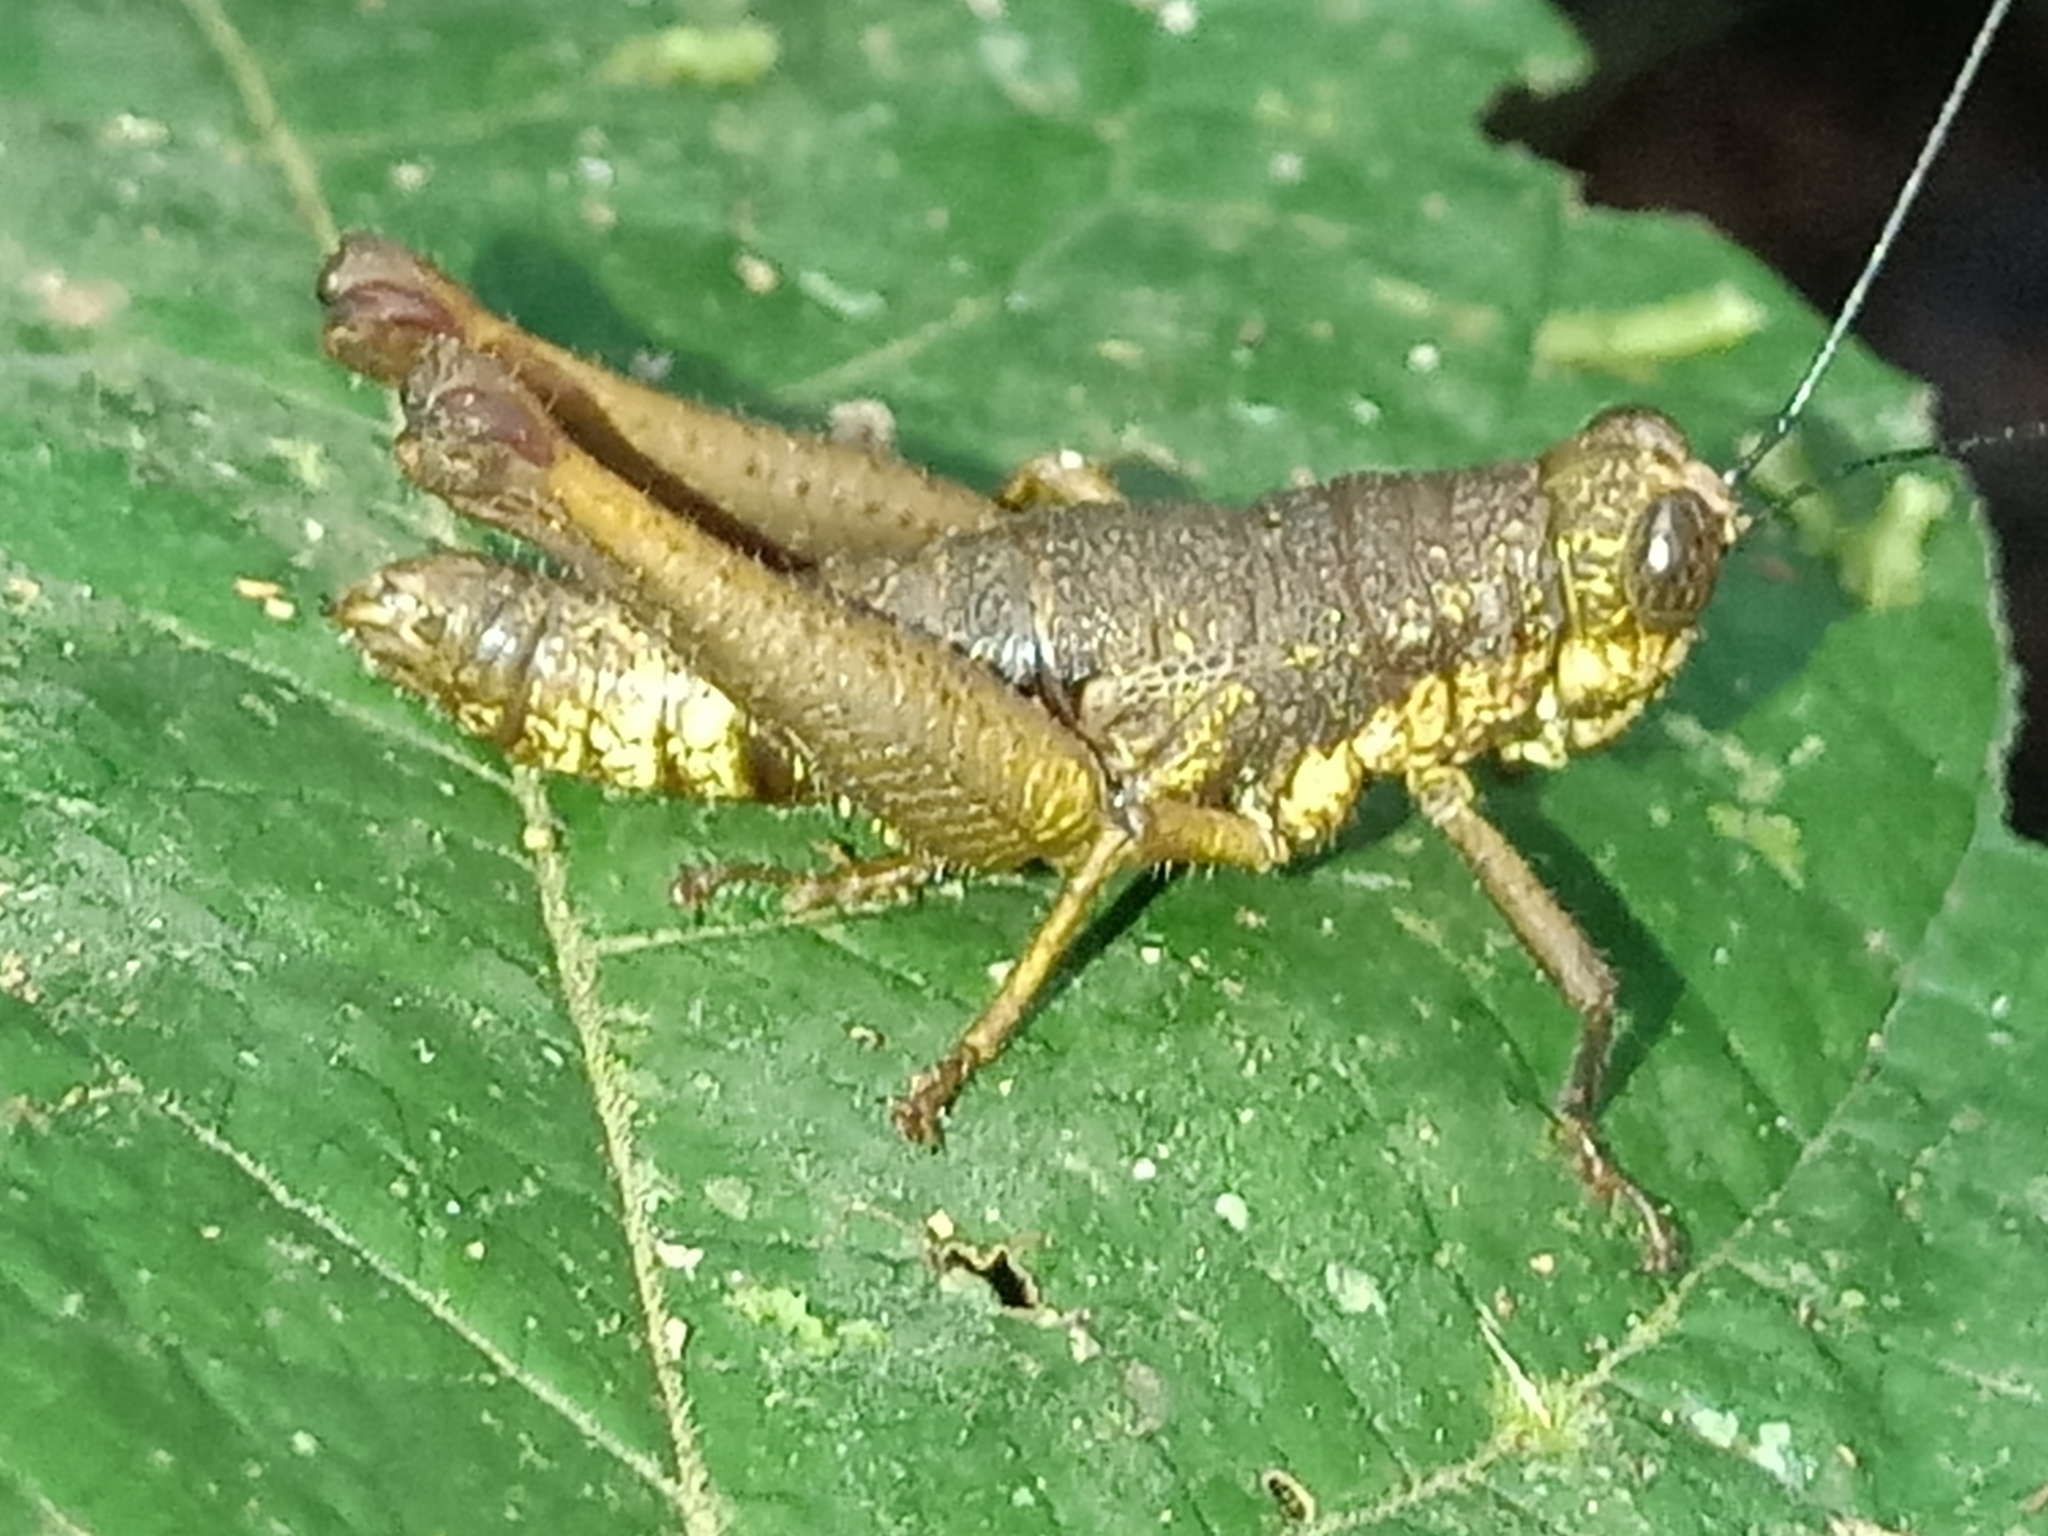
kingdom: Animalia
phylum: Arthropoda
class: Insecta
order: Orthoptera
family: Acrididae
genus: Episomacris
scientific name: Episomacris gruneri
